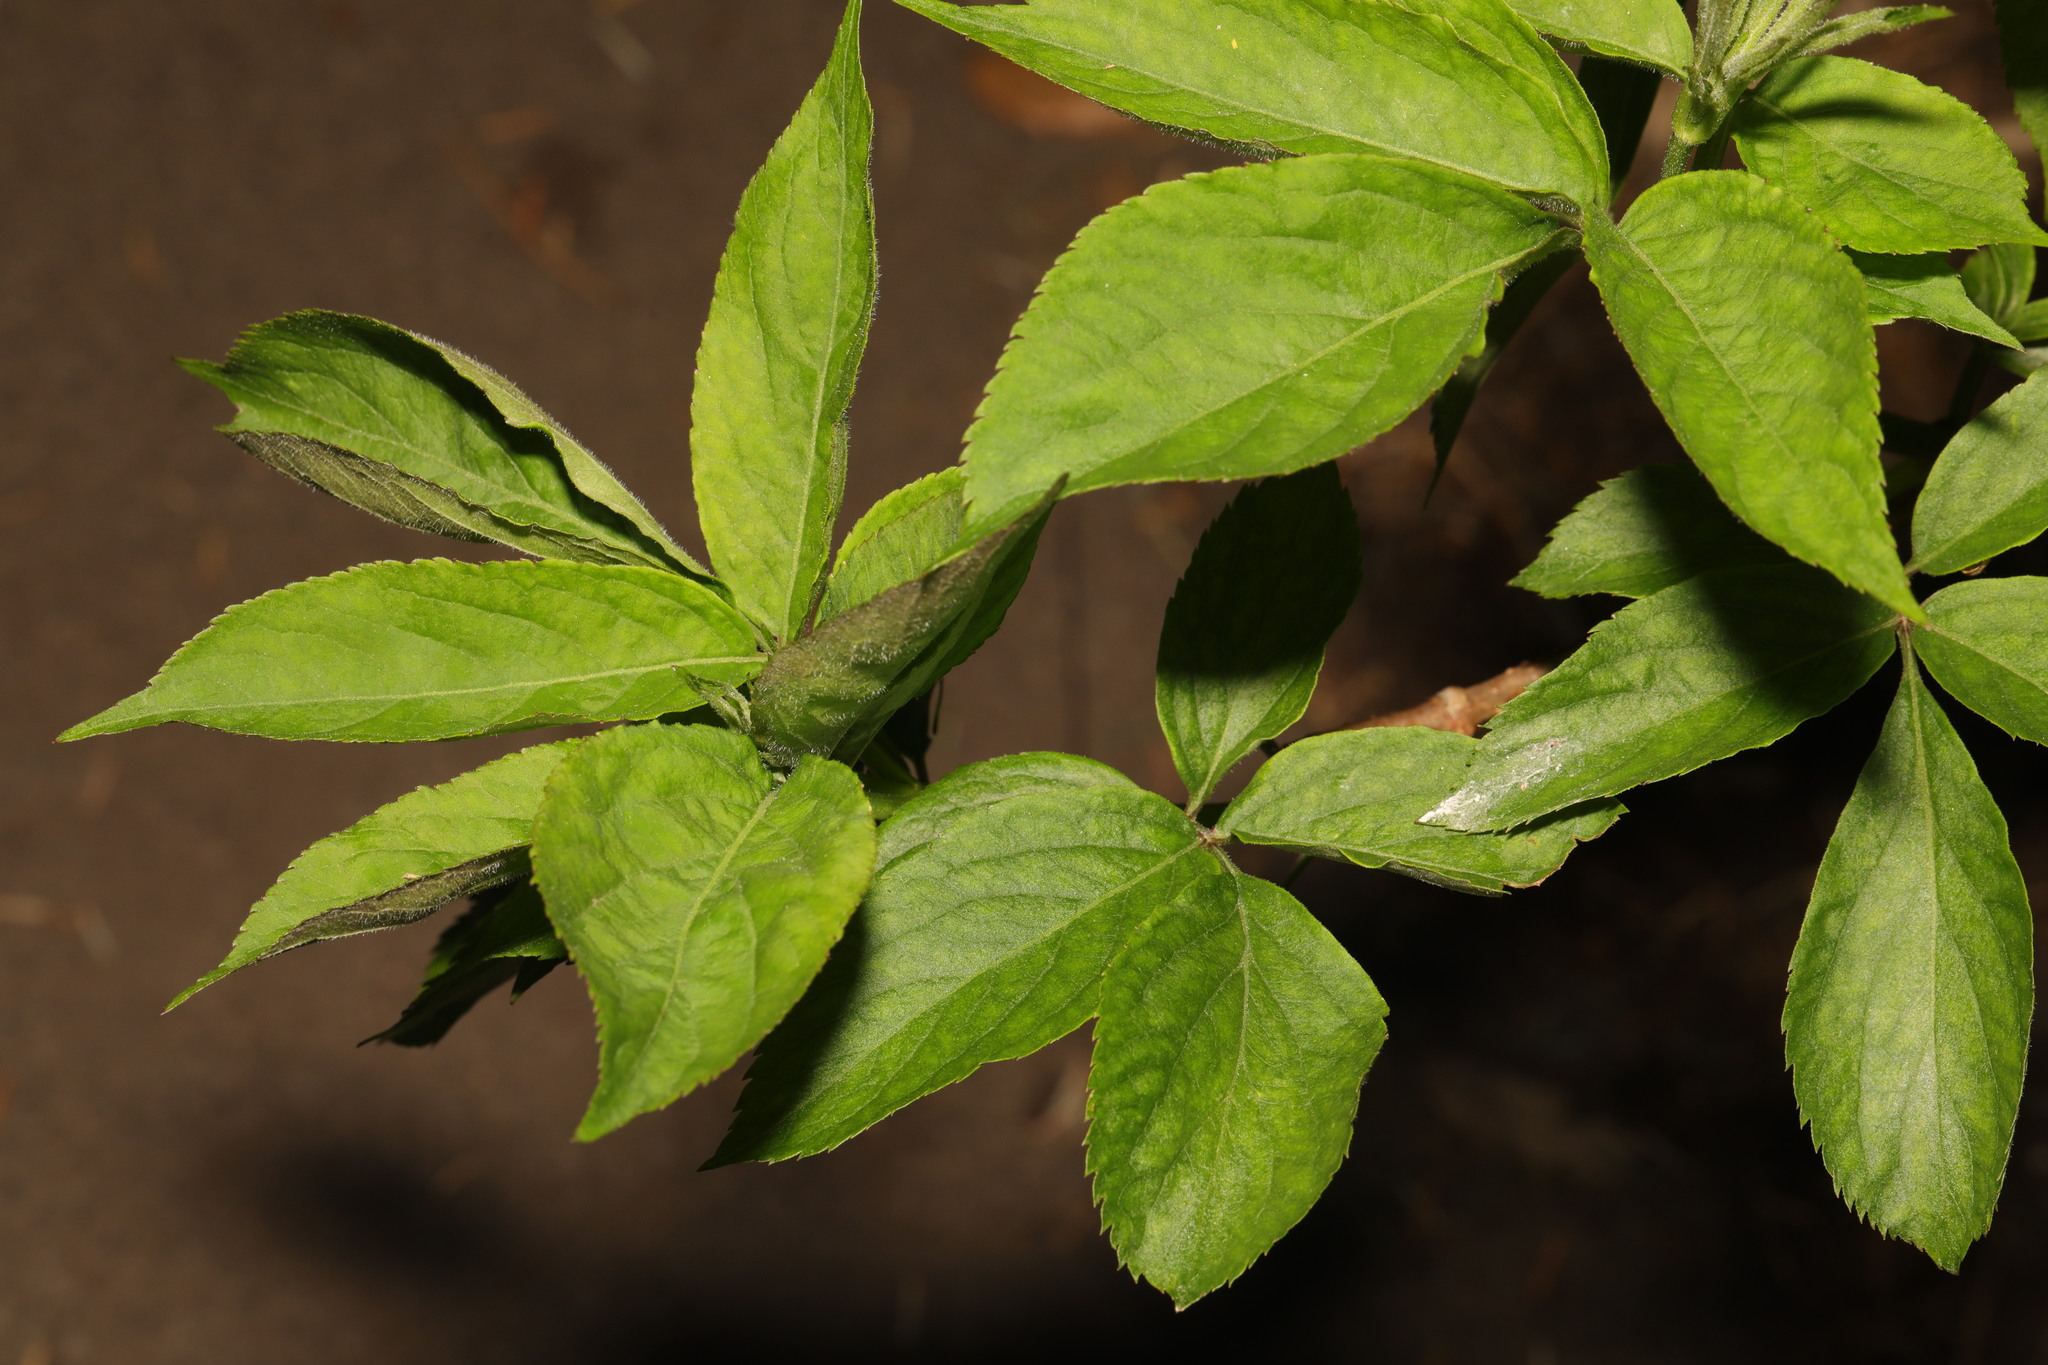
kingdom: Plantae
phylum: Tracheophyta
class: Magnoliopsida
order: Dipsacales
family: Viburnaceae
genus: Sambucus
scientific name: Sambucus nigra
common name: Elder
